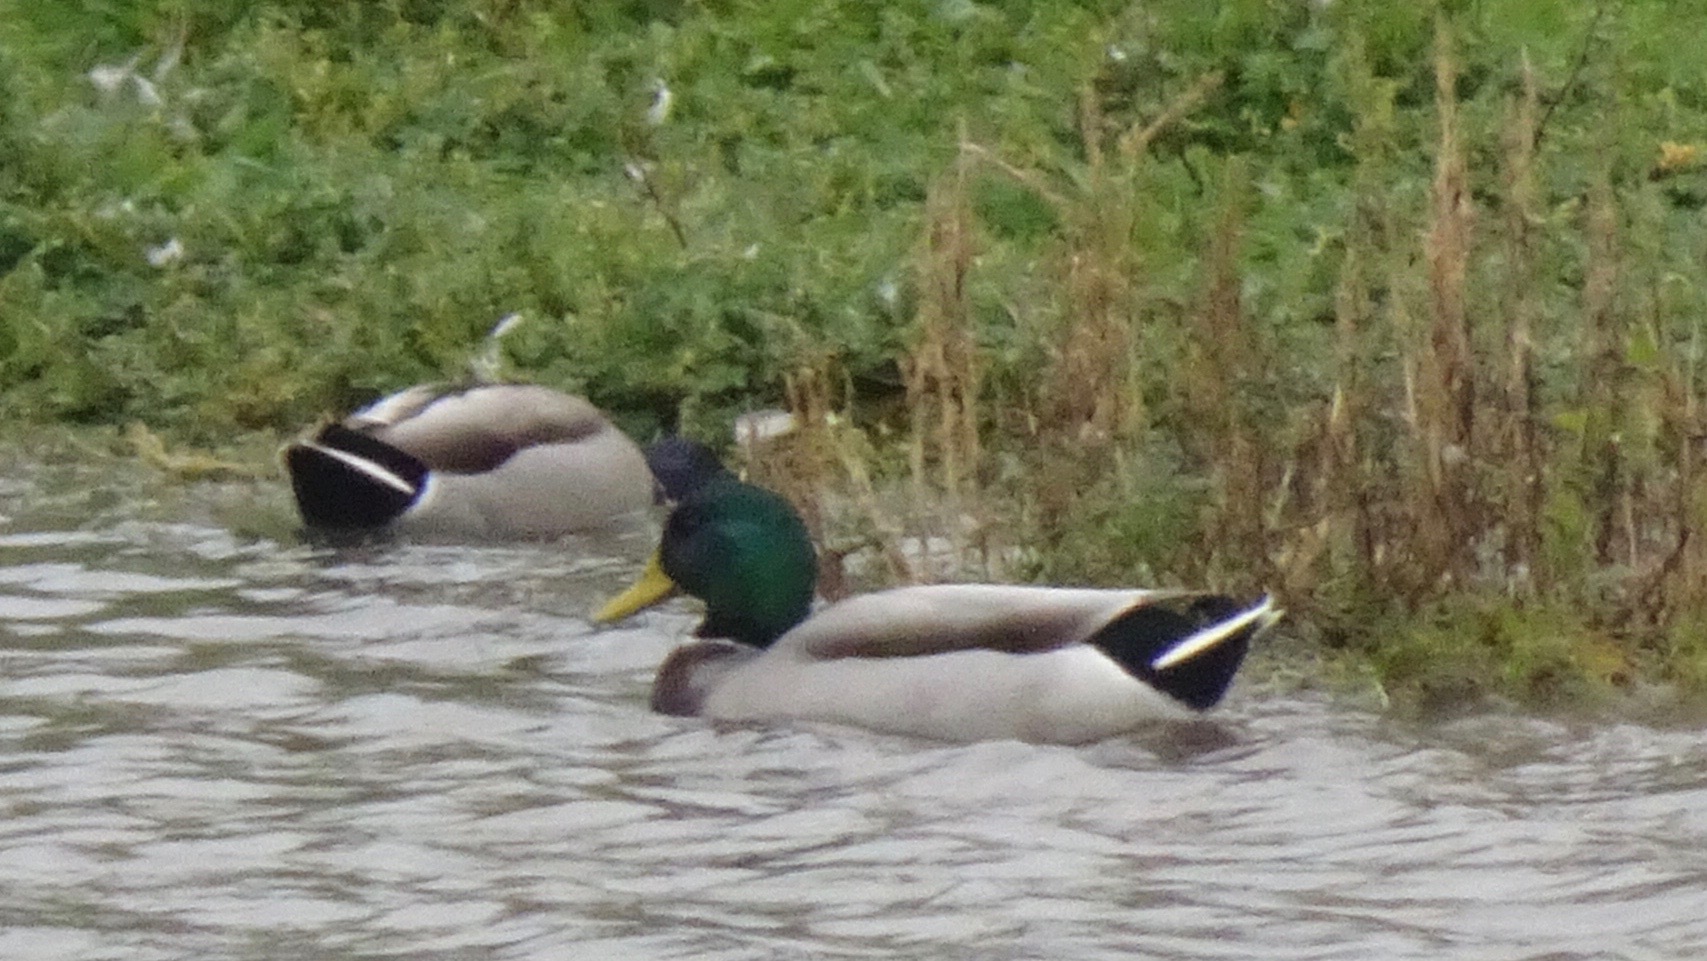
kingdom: Animalia
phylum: Chordata
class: Aves
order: Anseriformes
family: Anatidae
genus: Anas
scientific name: Anas platyrhynchos
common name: Mallard
